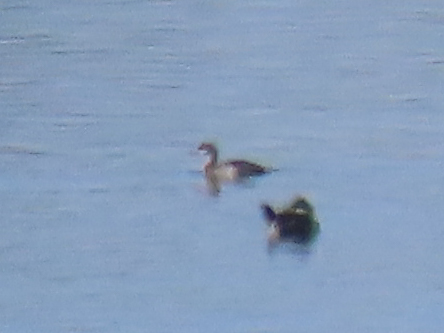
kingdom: Animalia
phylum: Chordata
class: Aves
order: Podicipediformes
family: Podicipedidae
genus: Podiceps
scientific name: Podiceps nigricollis
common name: Black-necked grebe
